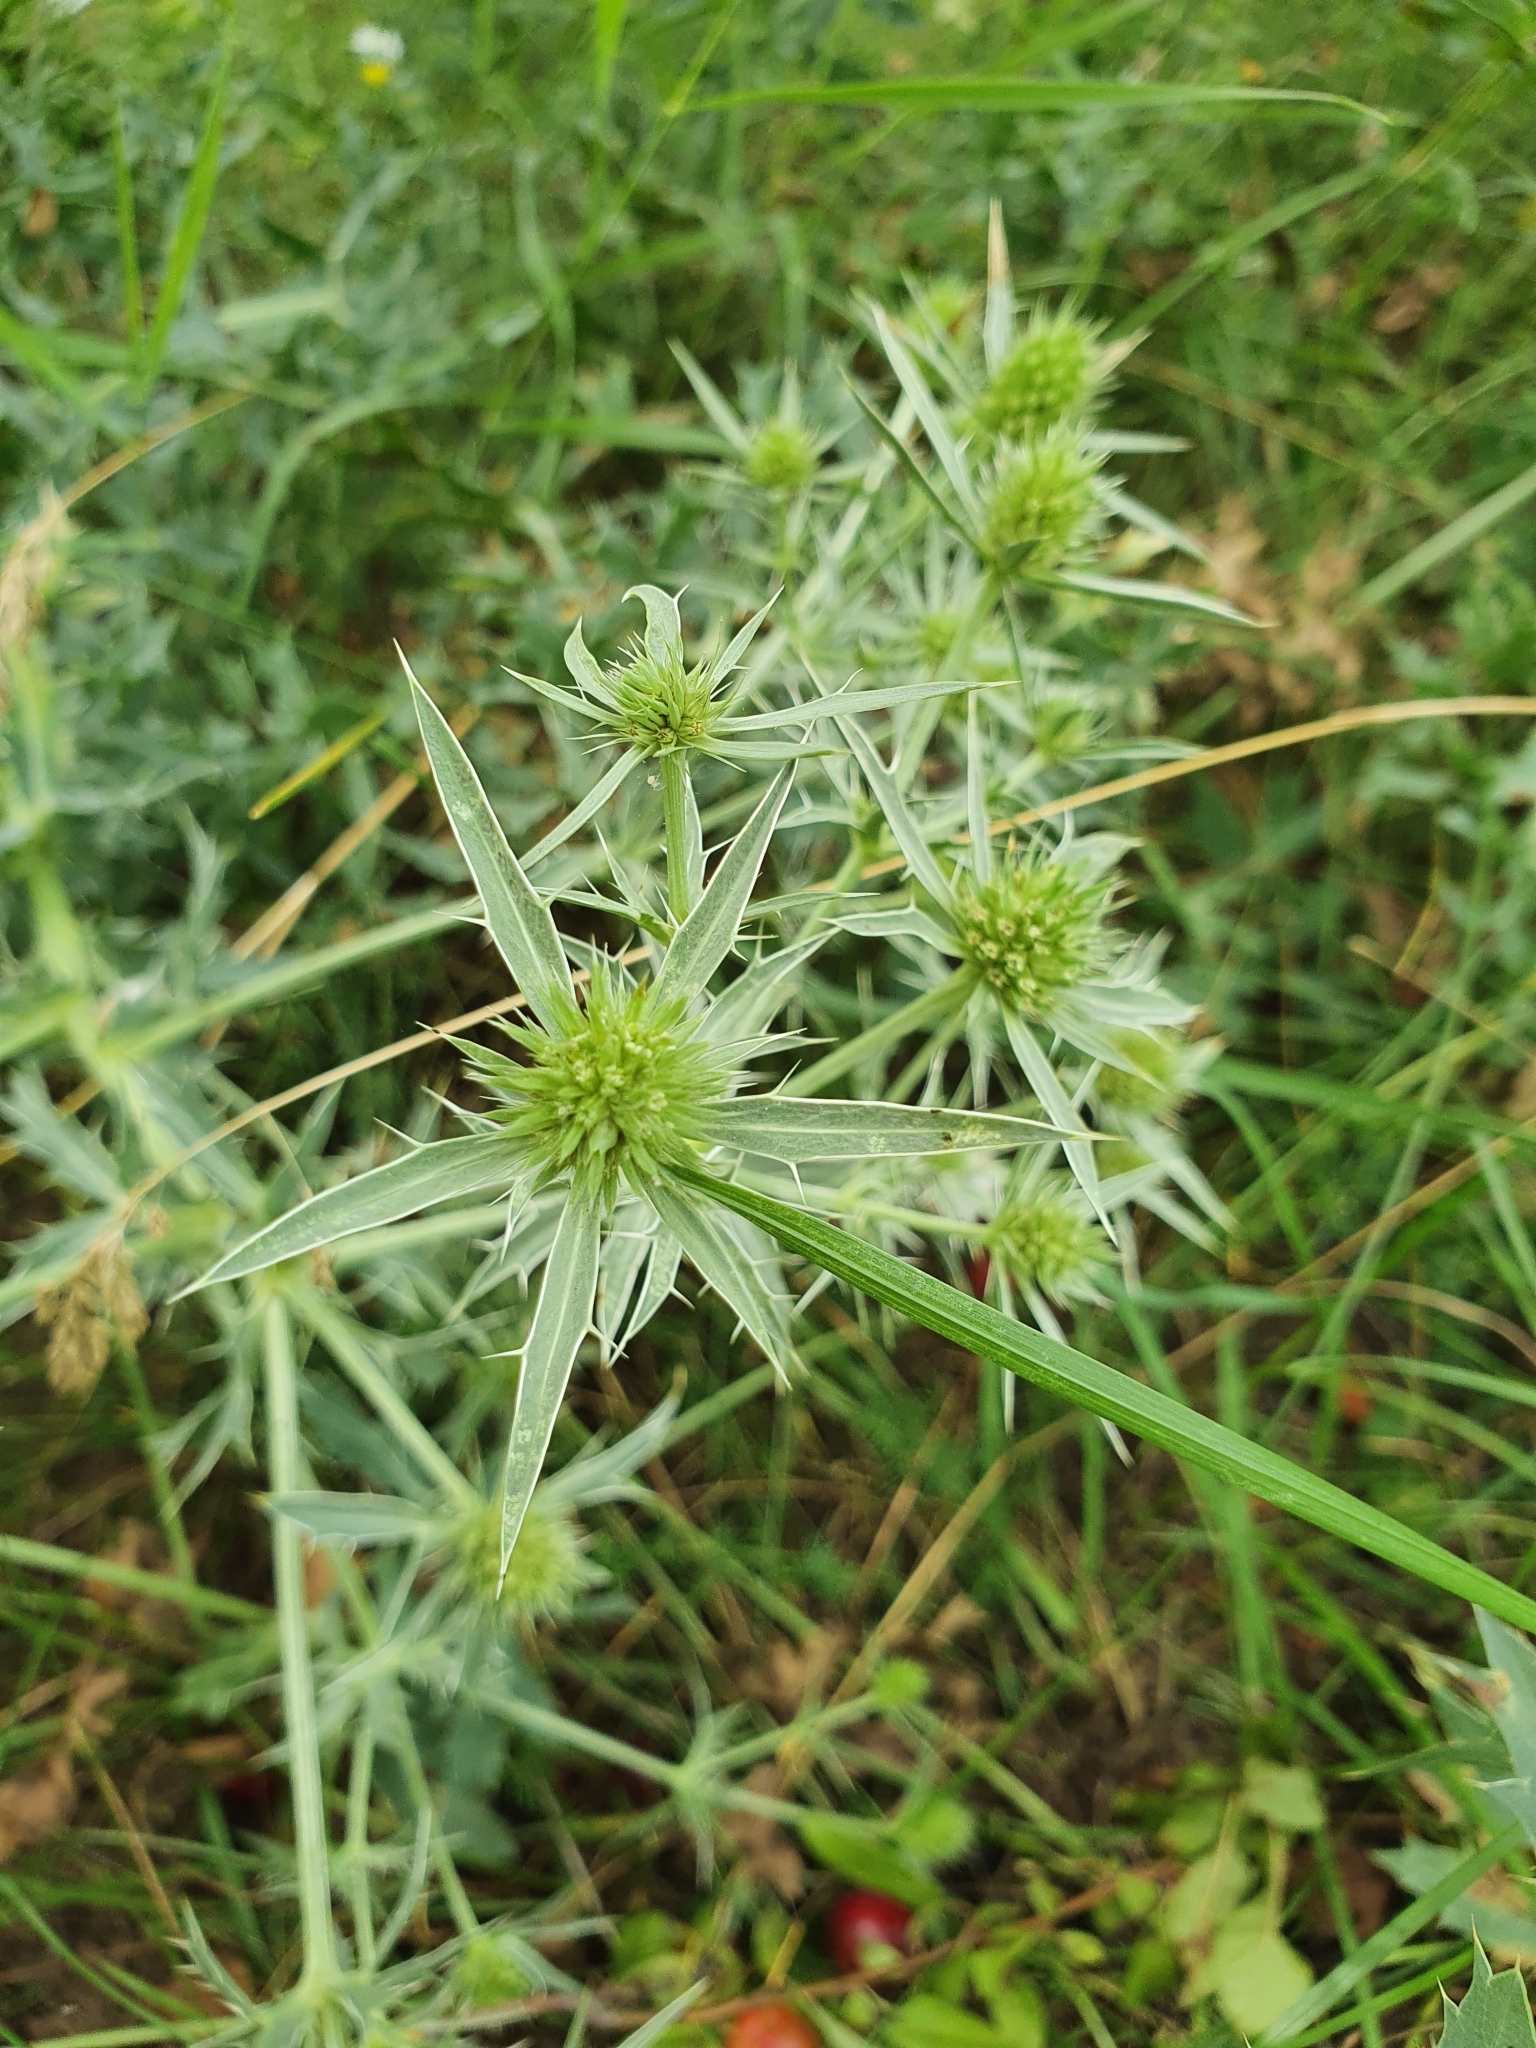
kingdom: Plantae
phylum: Tracheophyta
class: Magnoliopsida
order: Apiales
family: Apiaceae
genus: Eryngium
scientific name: Eryngium campestre
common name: Field eryngo
